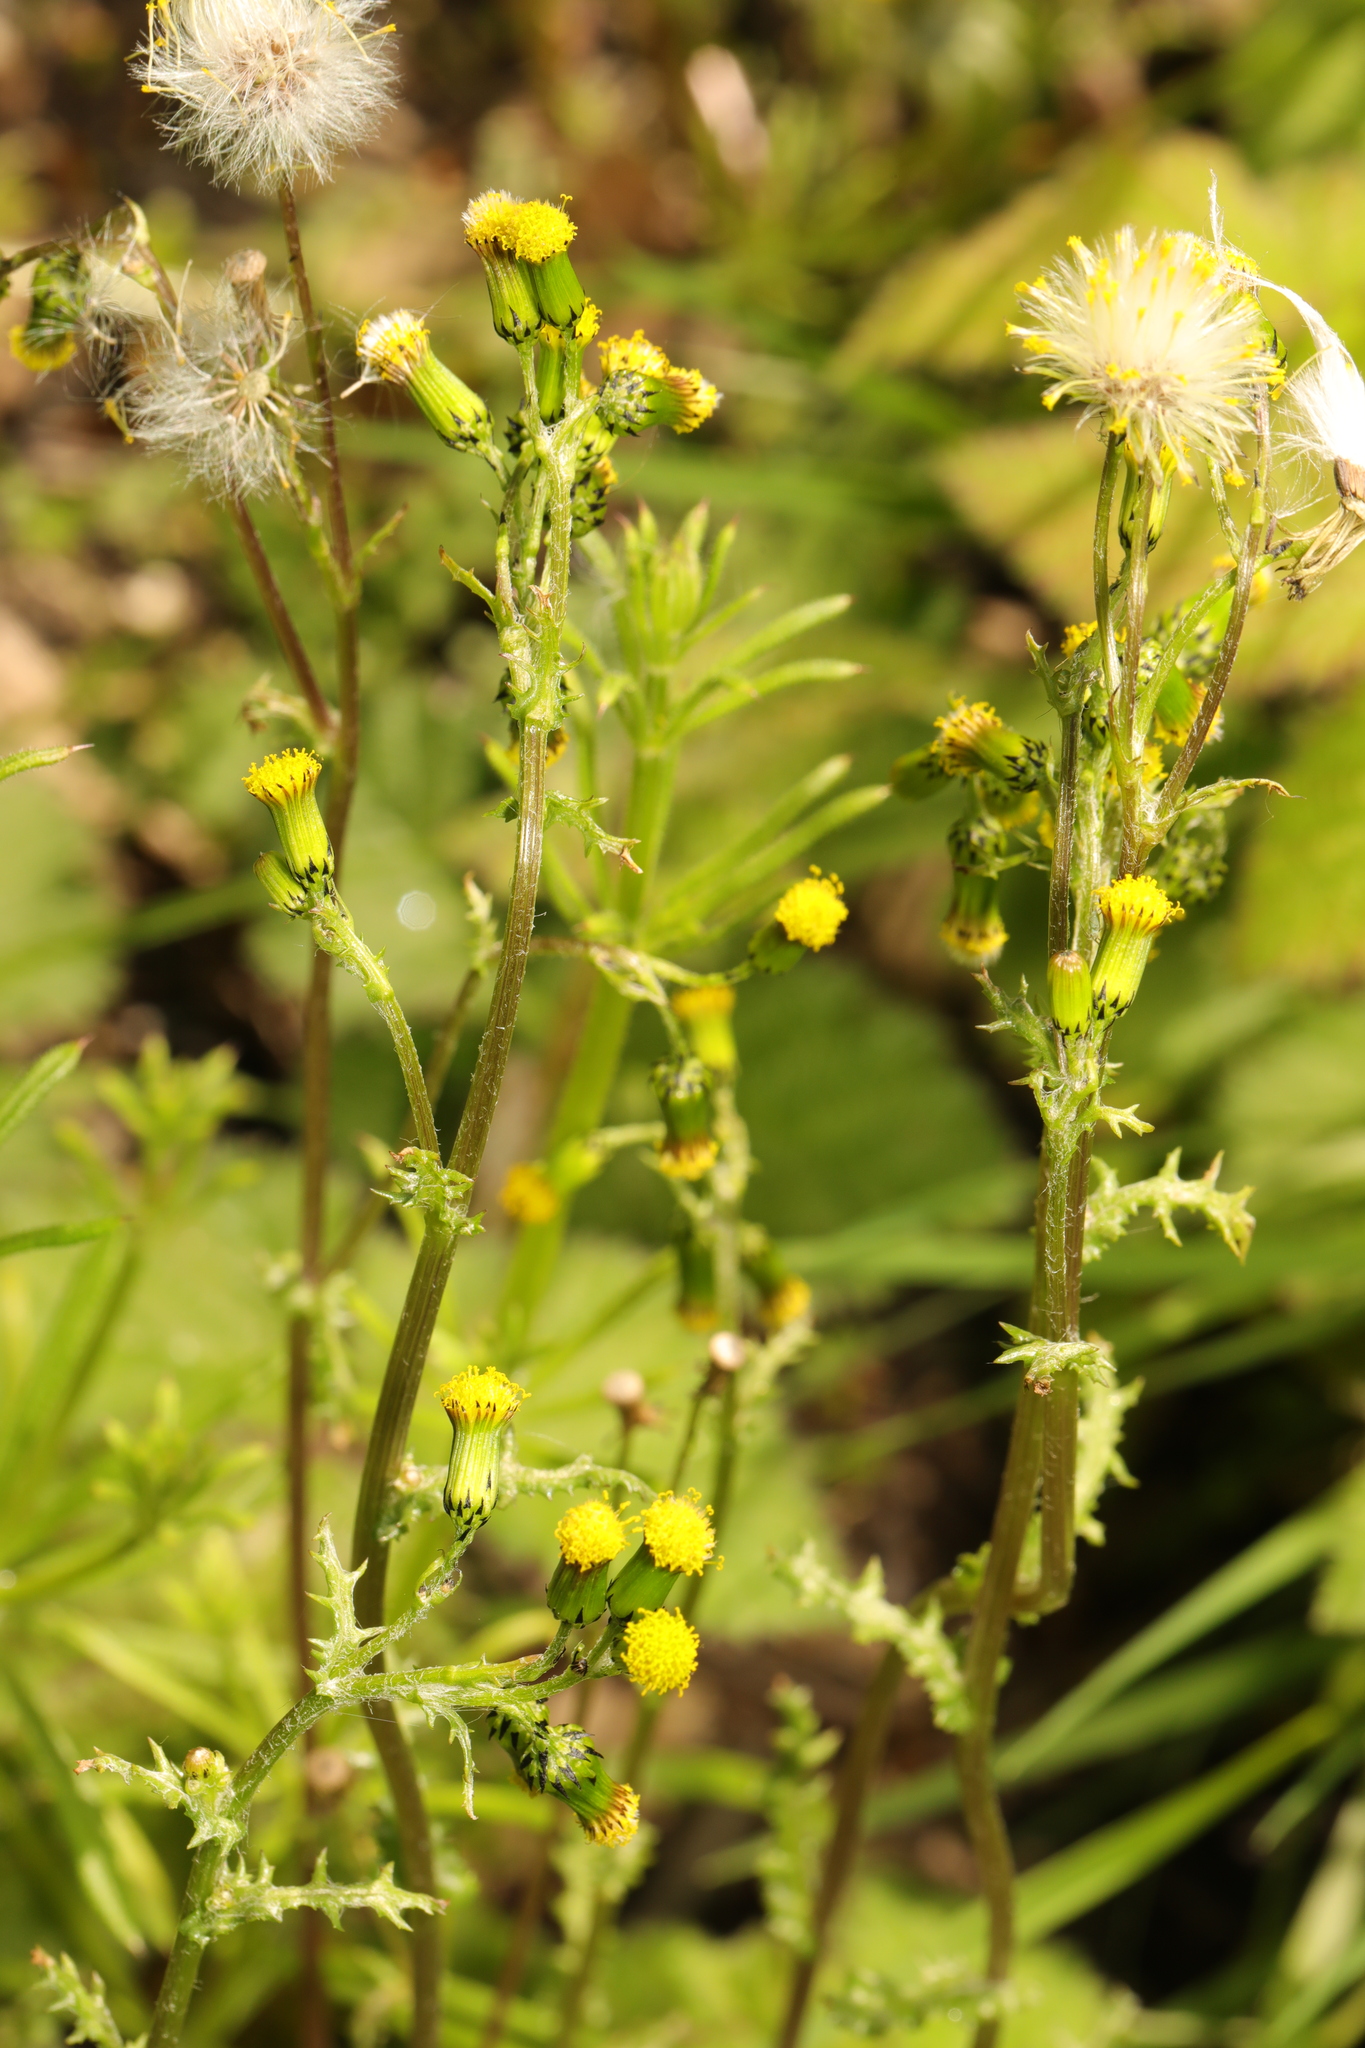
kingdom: Plantae
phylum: Tracheophyta
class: Magnoliopsida
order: Asterales
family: Asteraceae
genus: Senecio
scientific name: Senecio vulgaris
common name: Old-man-in-the-spring
